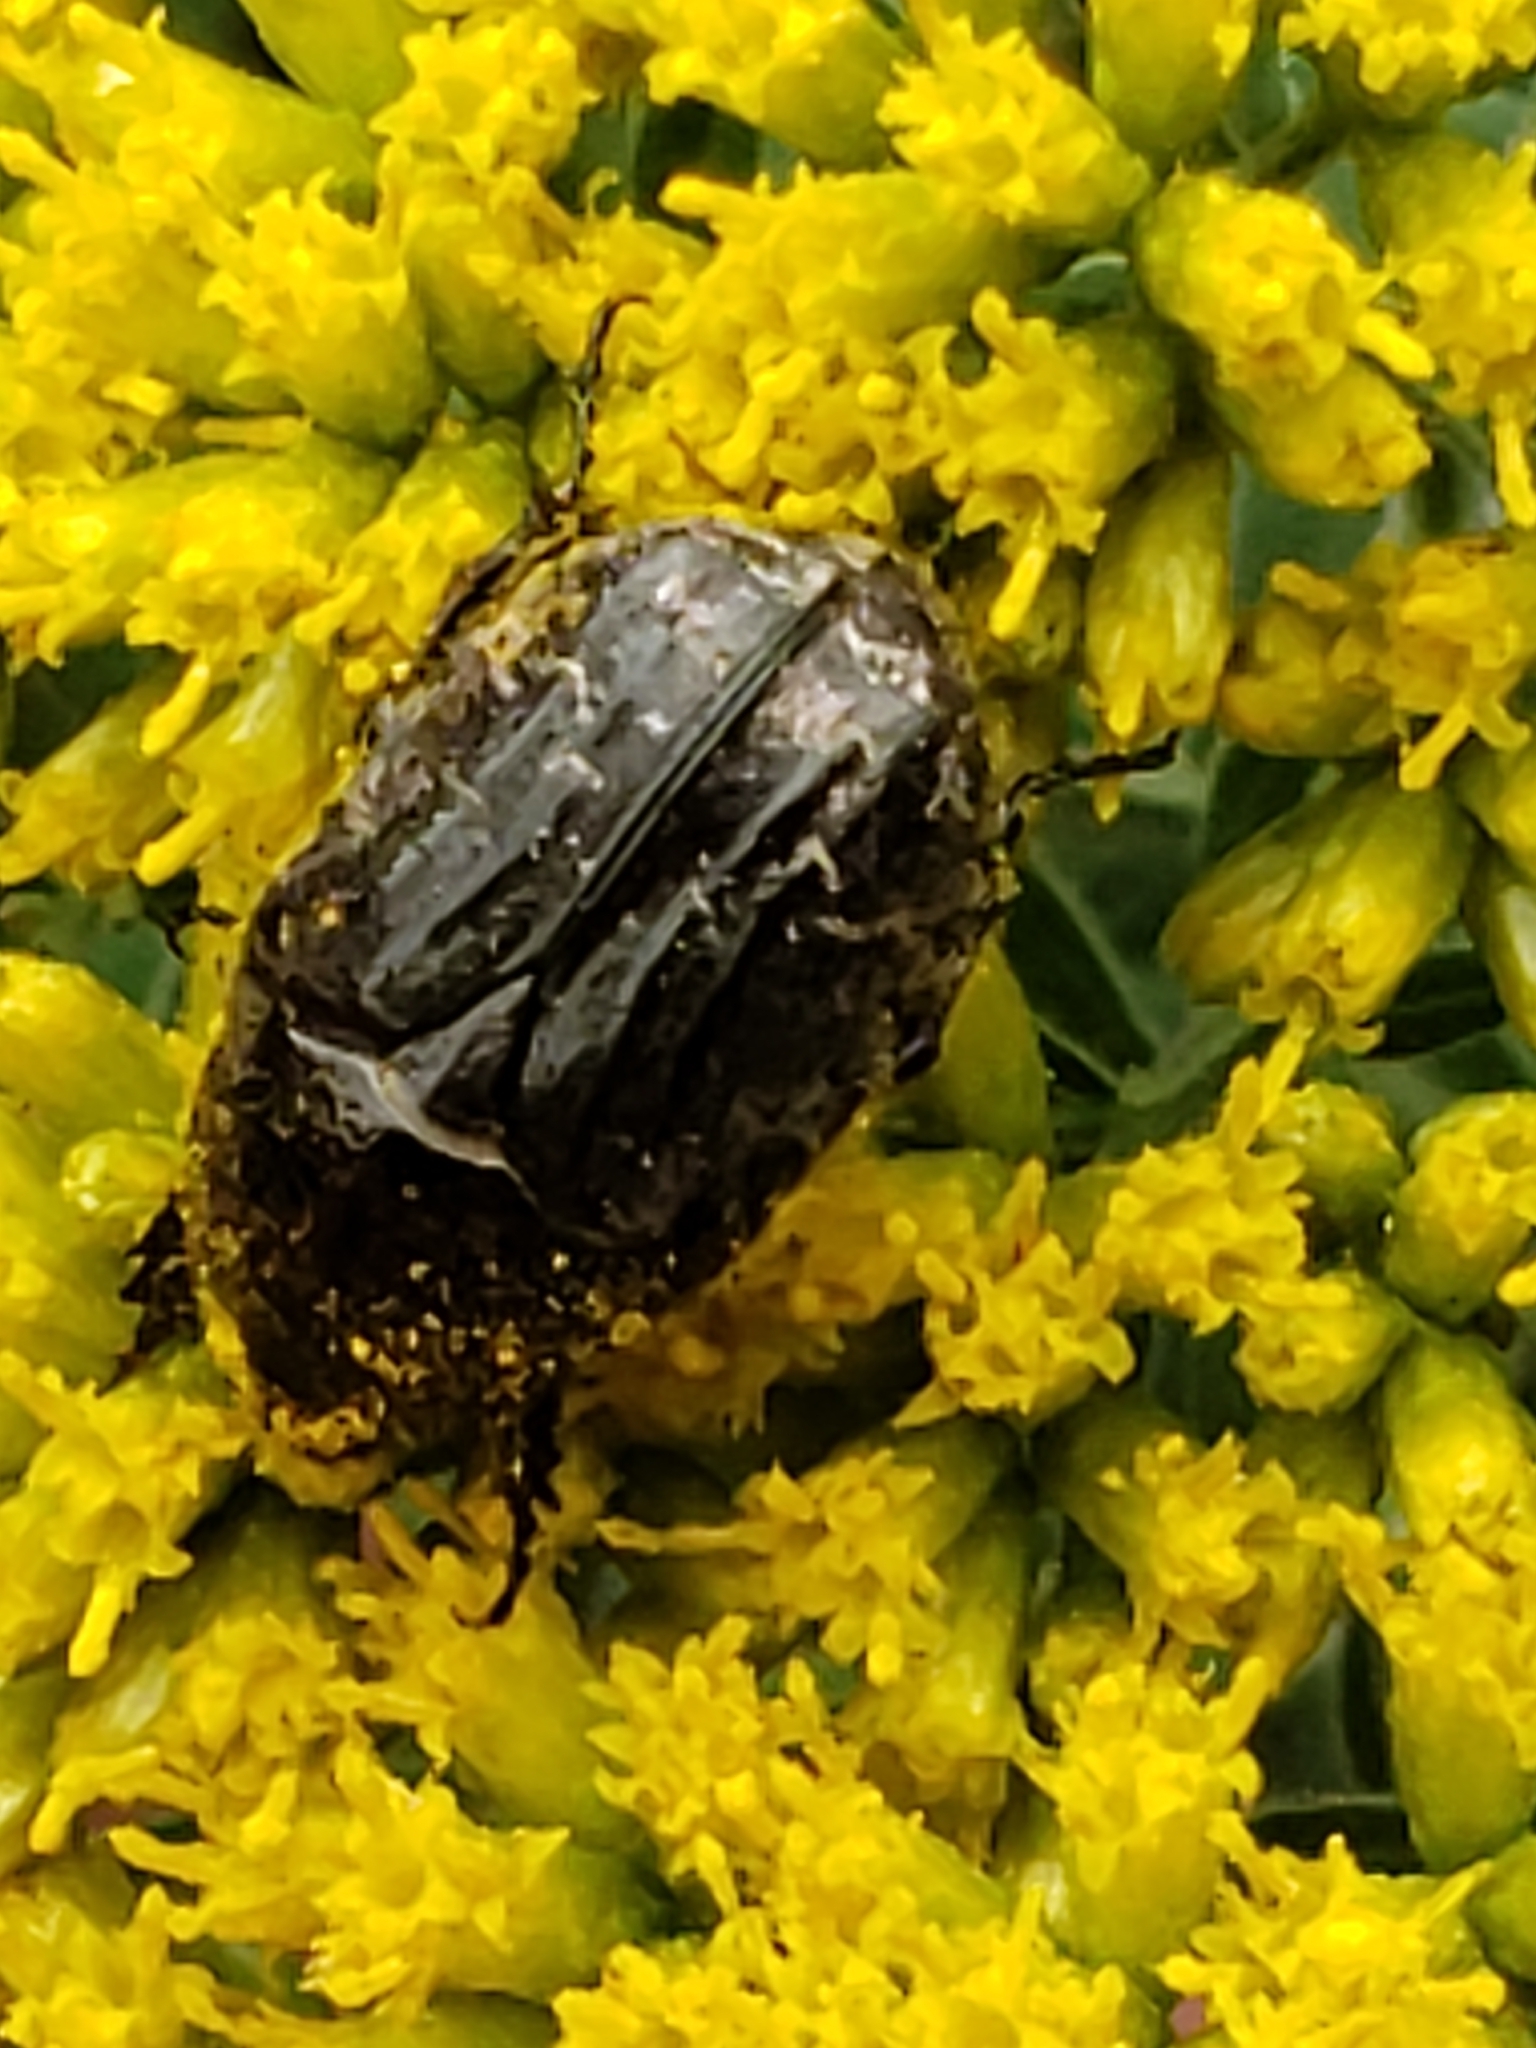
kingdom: Animalia
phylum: Arthropoda
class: Insecta
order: Coleoptera
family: Scarabaeidae
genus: Euphoria
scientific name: Euphoria sepulcralis
